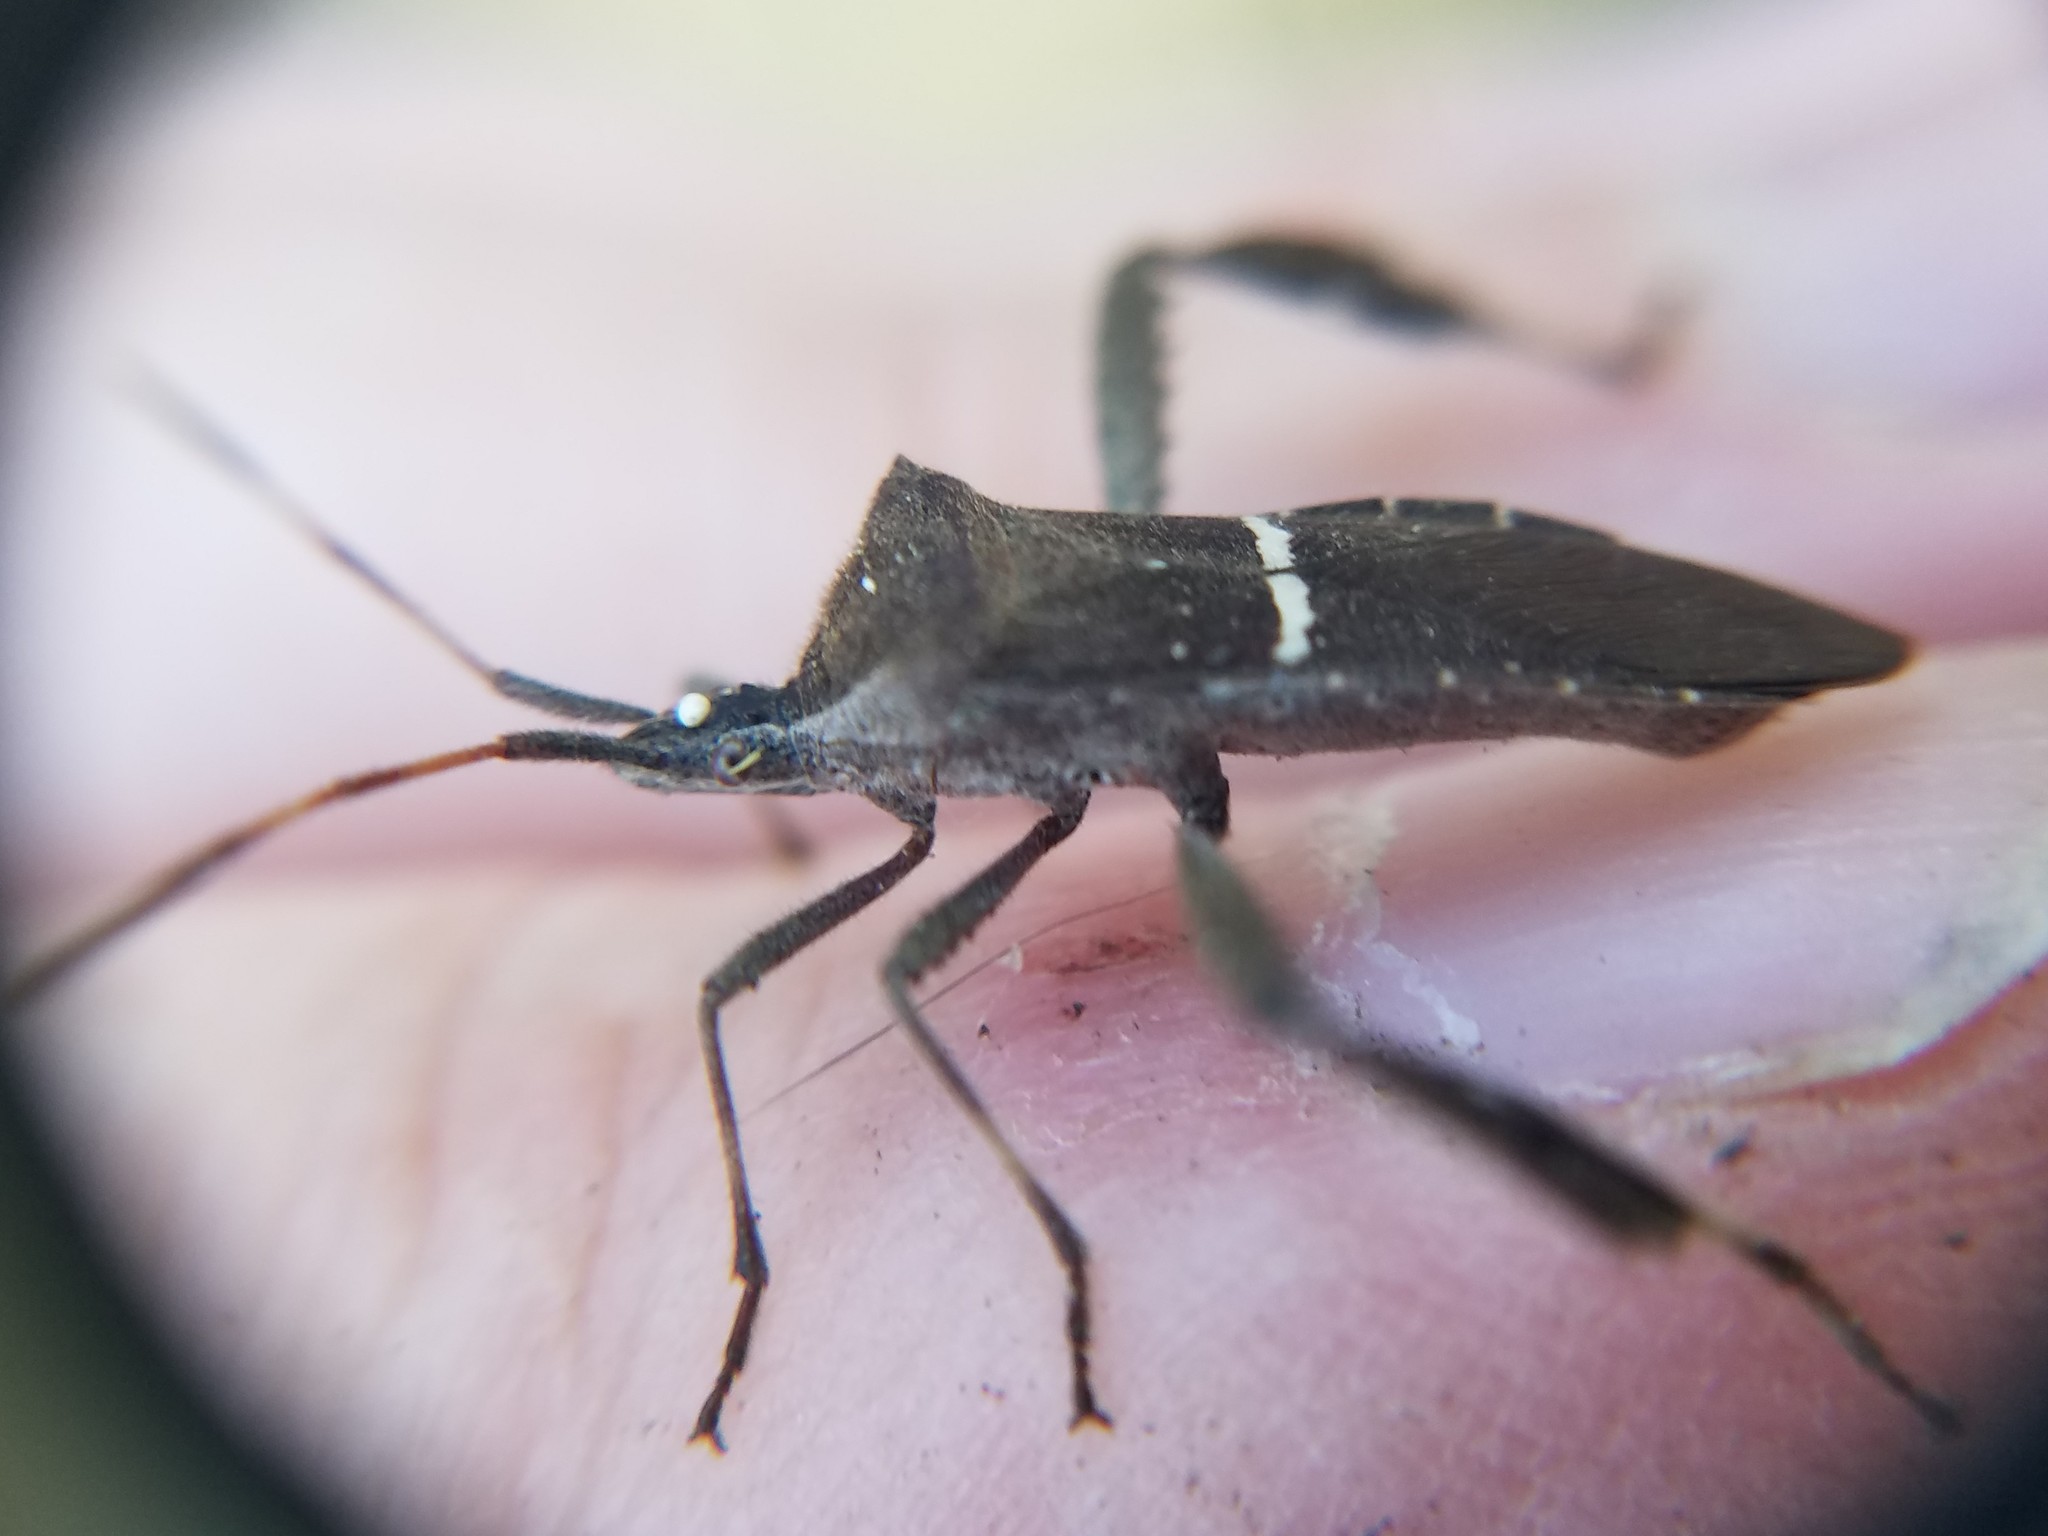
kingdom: Animalia
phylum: Arthropoda
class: Insecta
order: Hemiptera
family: Coreidae
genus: Leptoglossus
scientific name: Leptoglossus phyllopus
